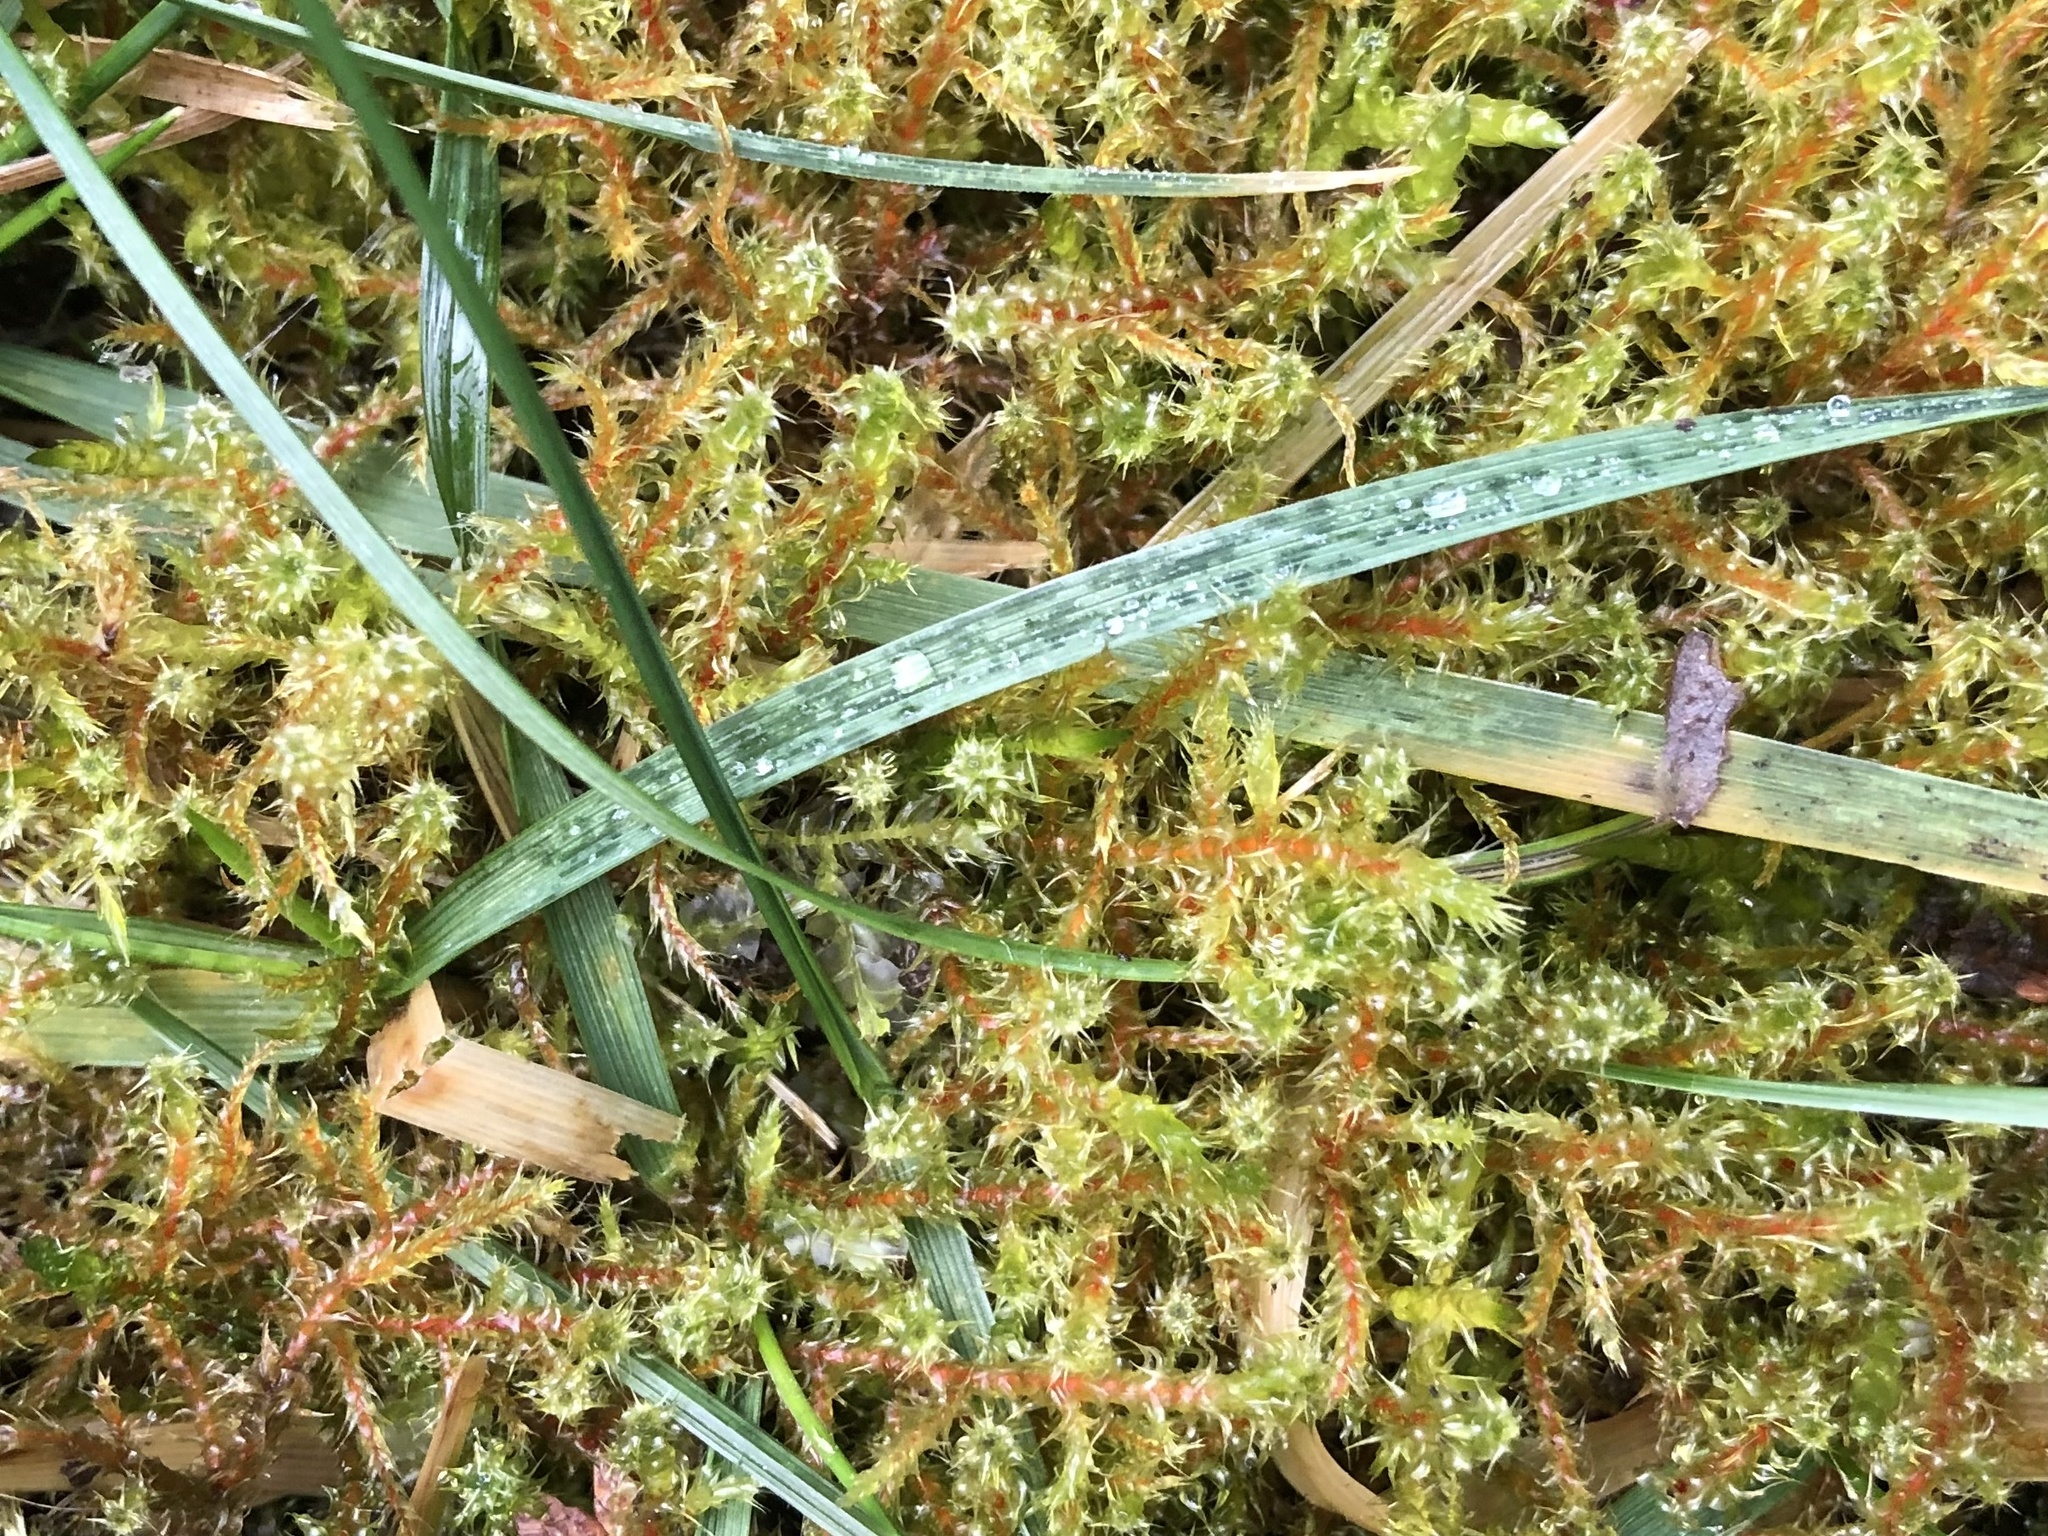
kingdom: Plantae
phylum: Bryophyta
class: Bryopsida
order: Hypnales
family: Hylocomiaceae
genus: Rhytidiadelphus
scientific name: Rhytidiadelphus squarrosus
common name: Springy turf-moss
